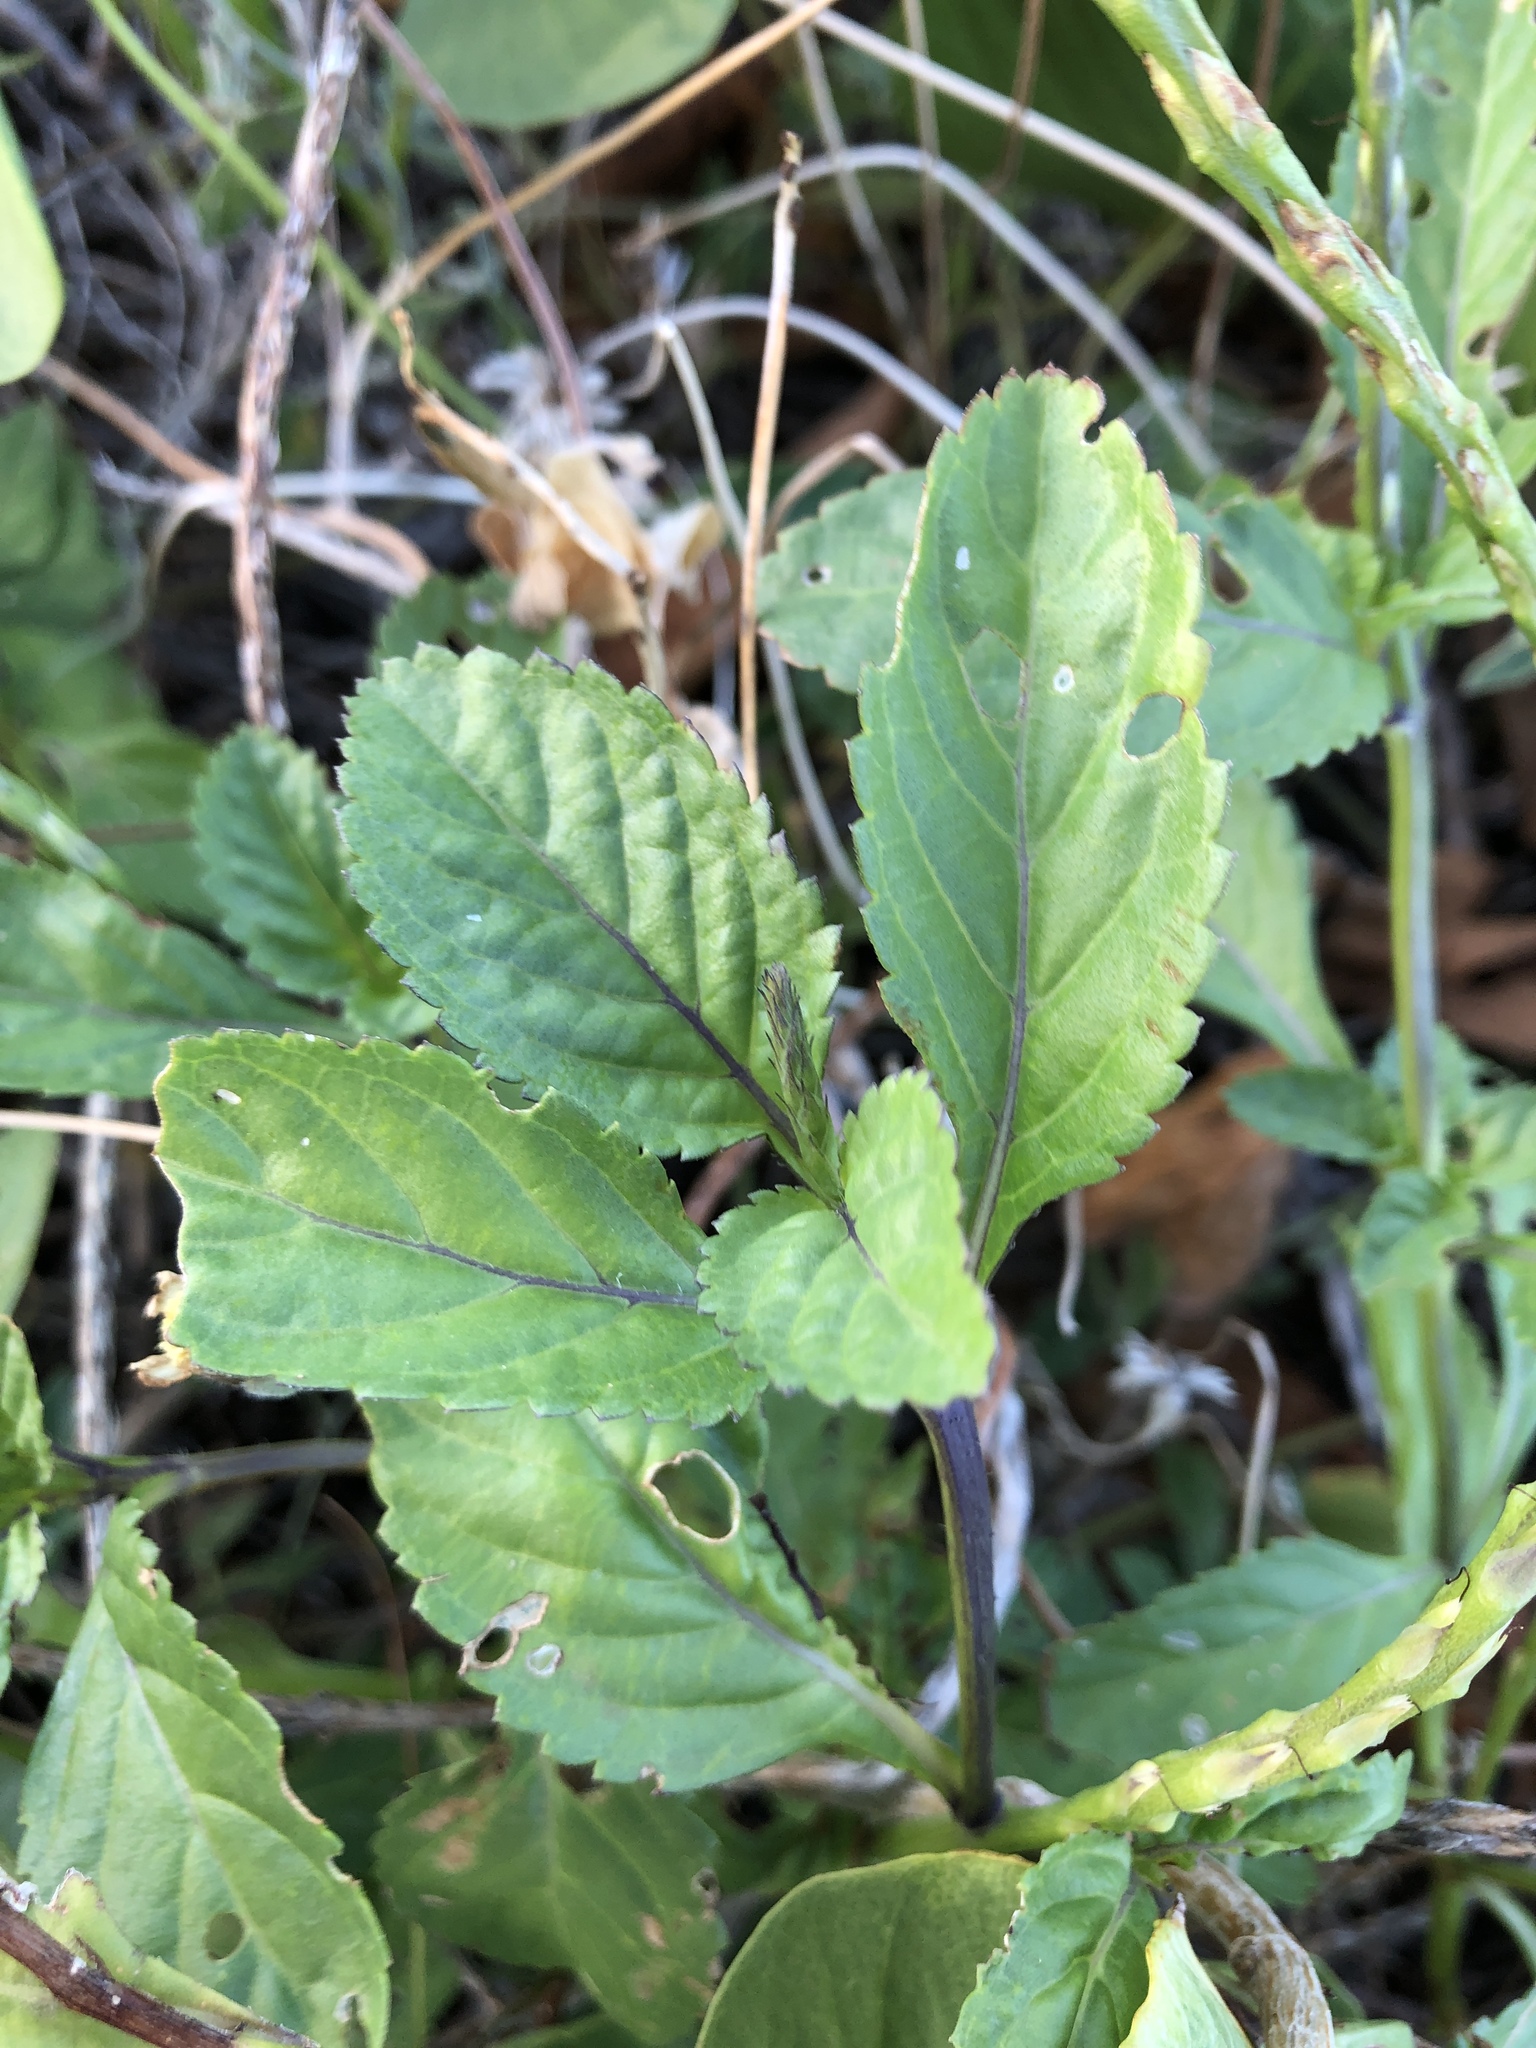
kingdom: Plantae
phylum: Tracheophyta
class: Magnoliopsida
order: Lamiales
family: Verbenaceae
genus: Stachytarpheta
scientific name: Stachytarpheta jamaicensis
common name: Light-blue snakeweed
